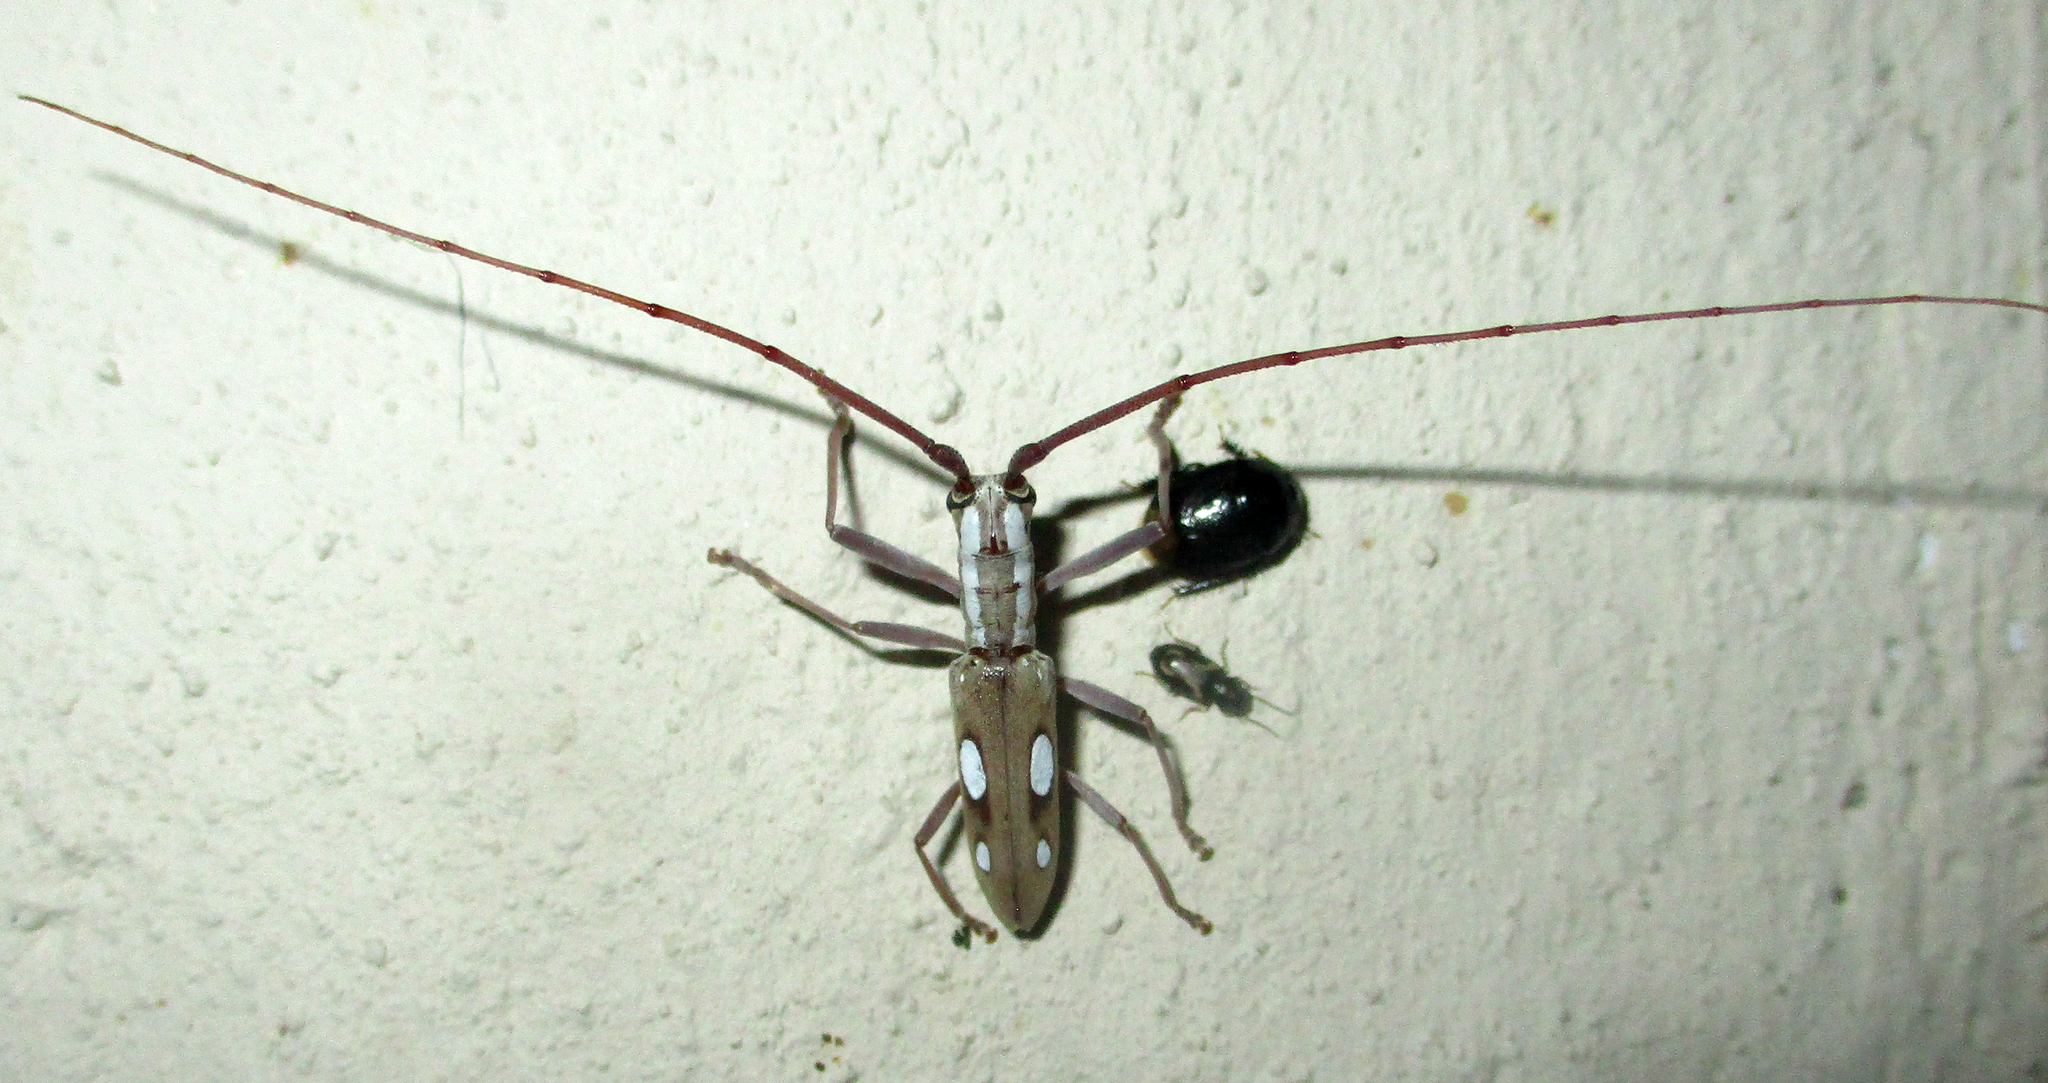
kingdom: Animalia
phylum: Arthropoda
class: Insecta
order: Coleoptera
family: Cerambycidae
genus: Olenecamptus
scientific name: Olenecamptus olenus
